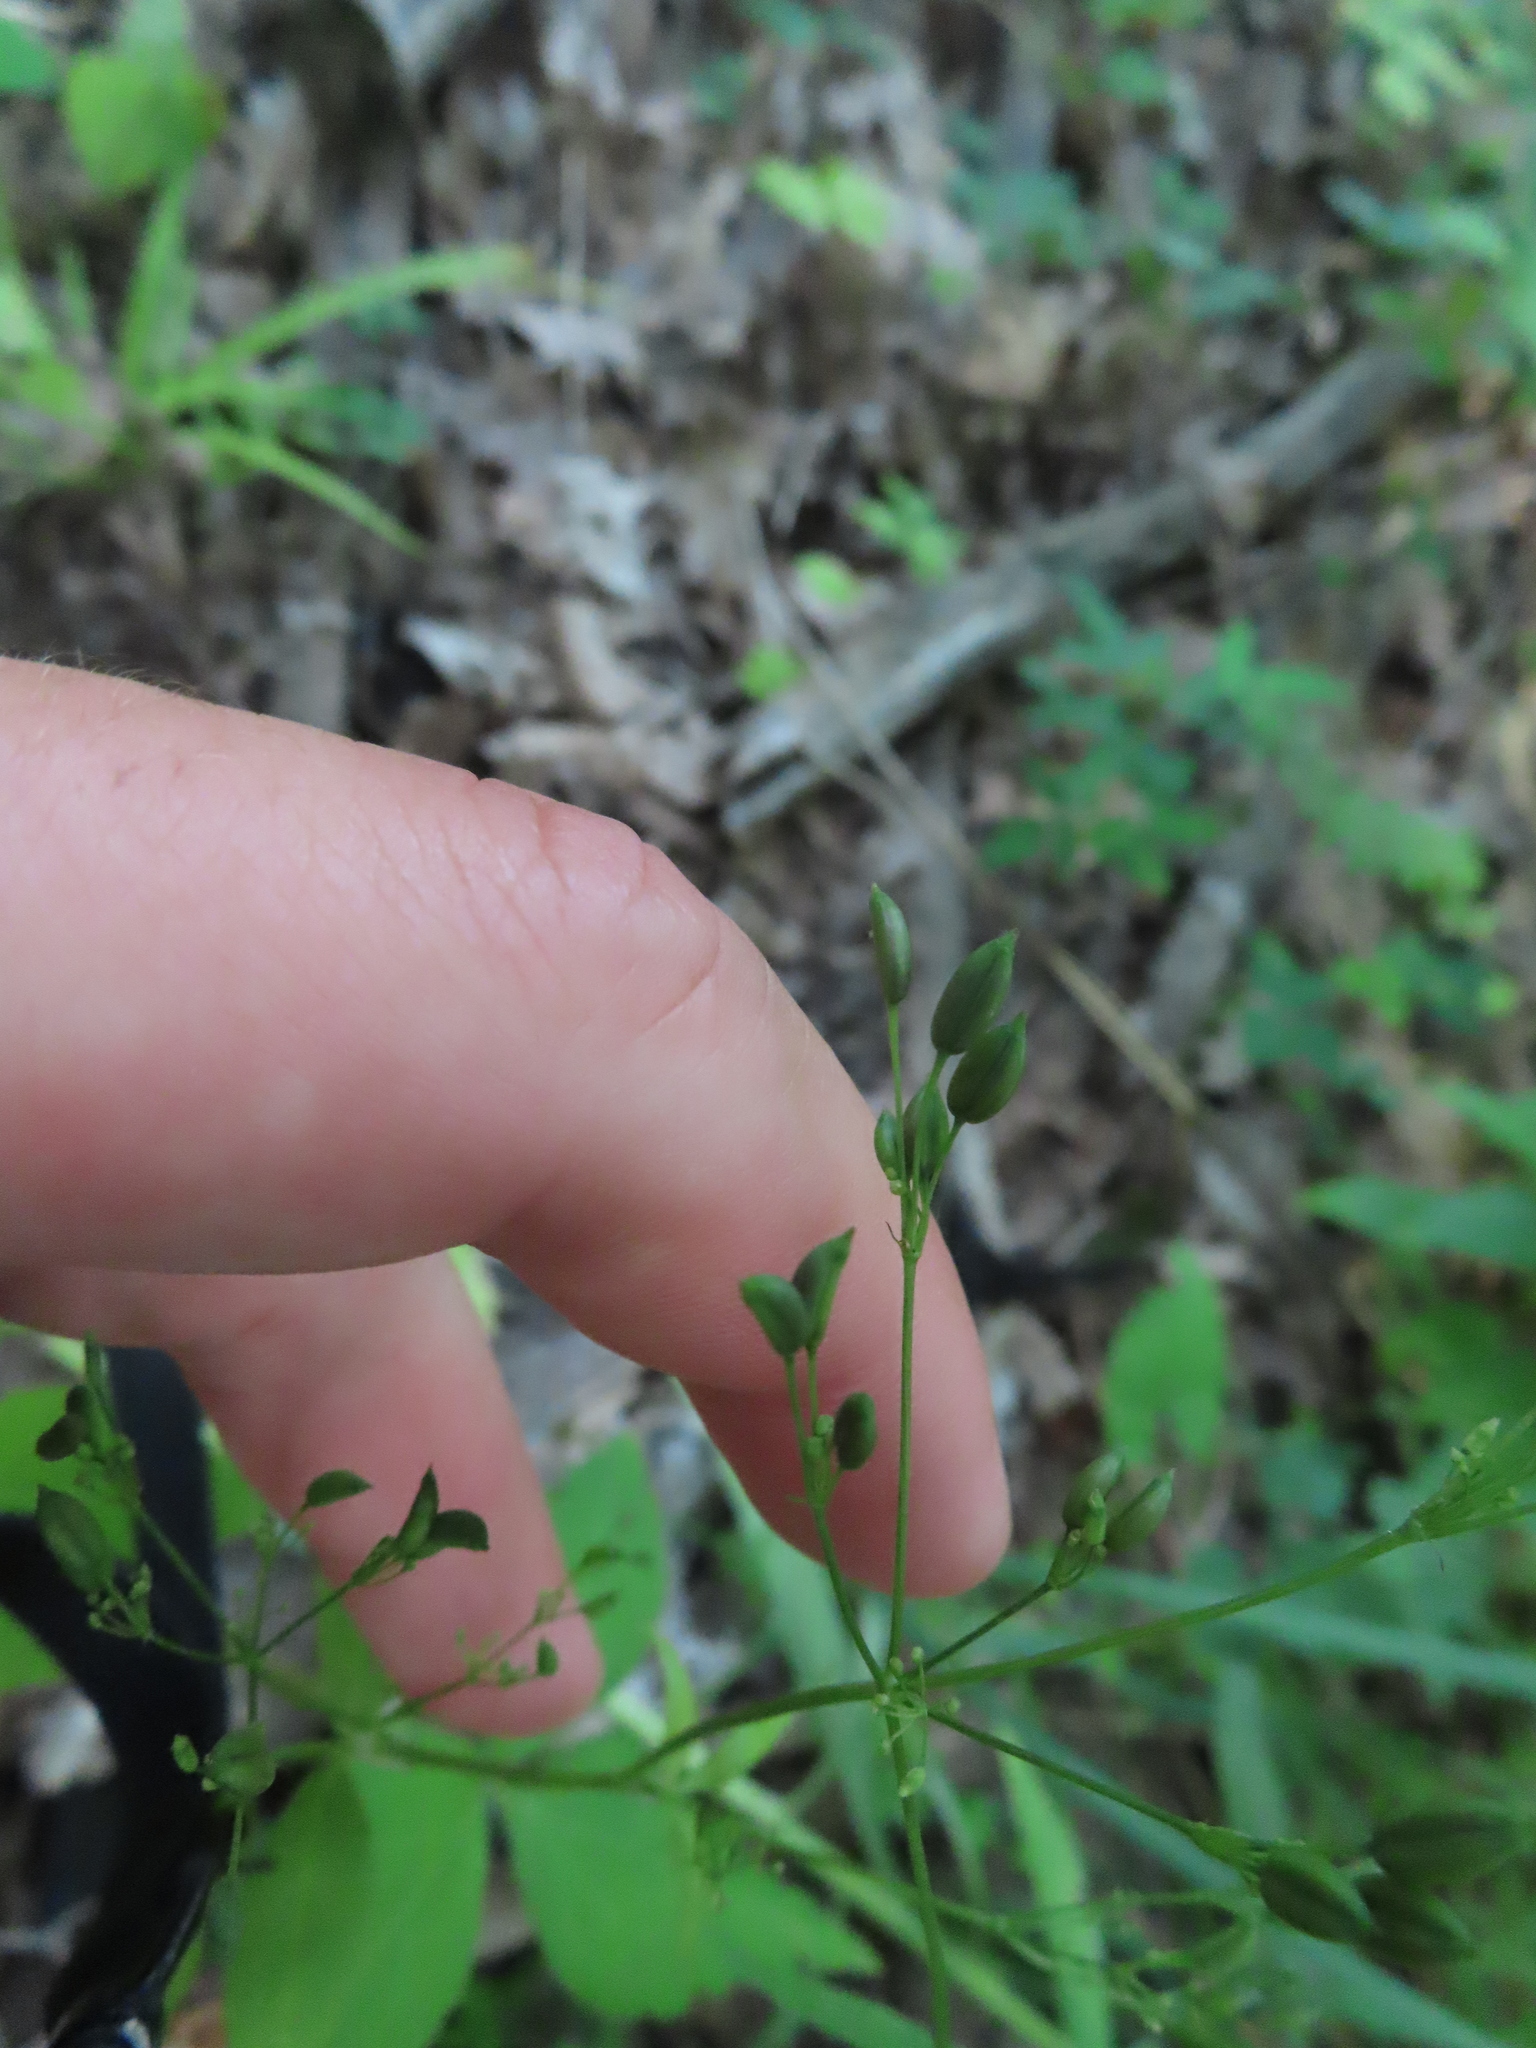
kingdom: Plantae
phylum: Tracheophyta
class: Magnoliopsida
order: Apiales
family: Apiaceae
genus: Cryptotaenia
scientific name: Cryptotaenia canadensis
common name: Honewort
